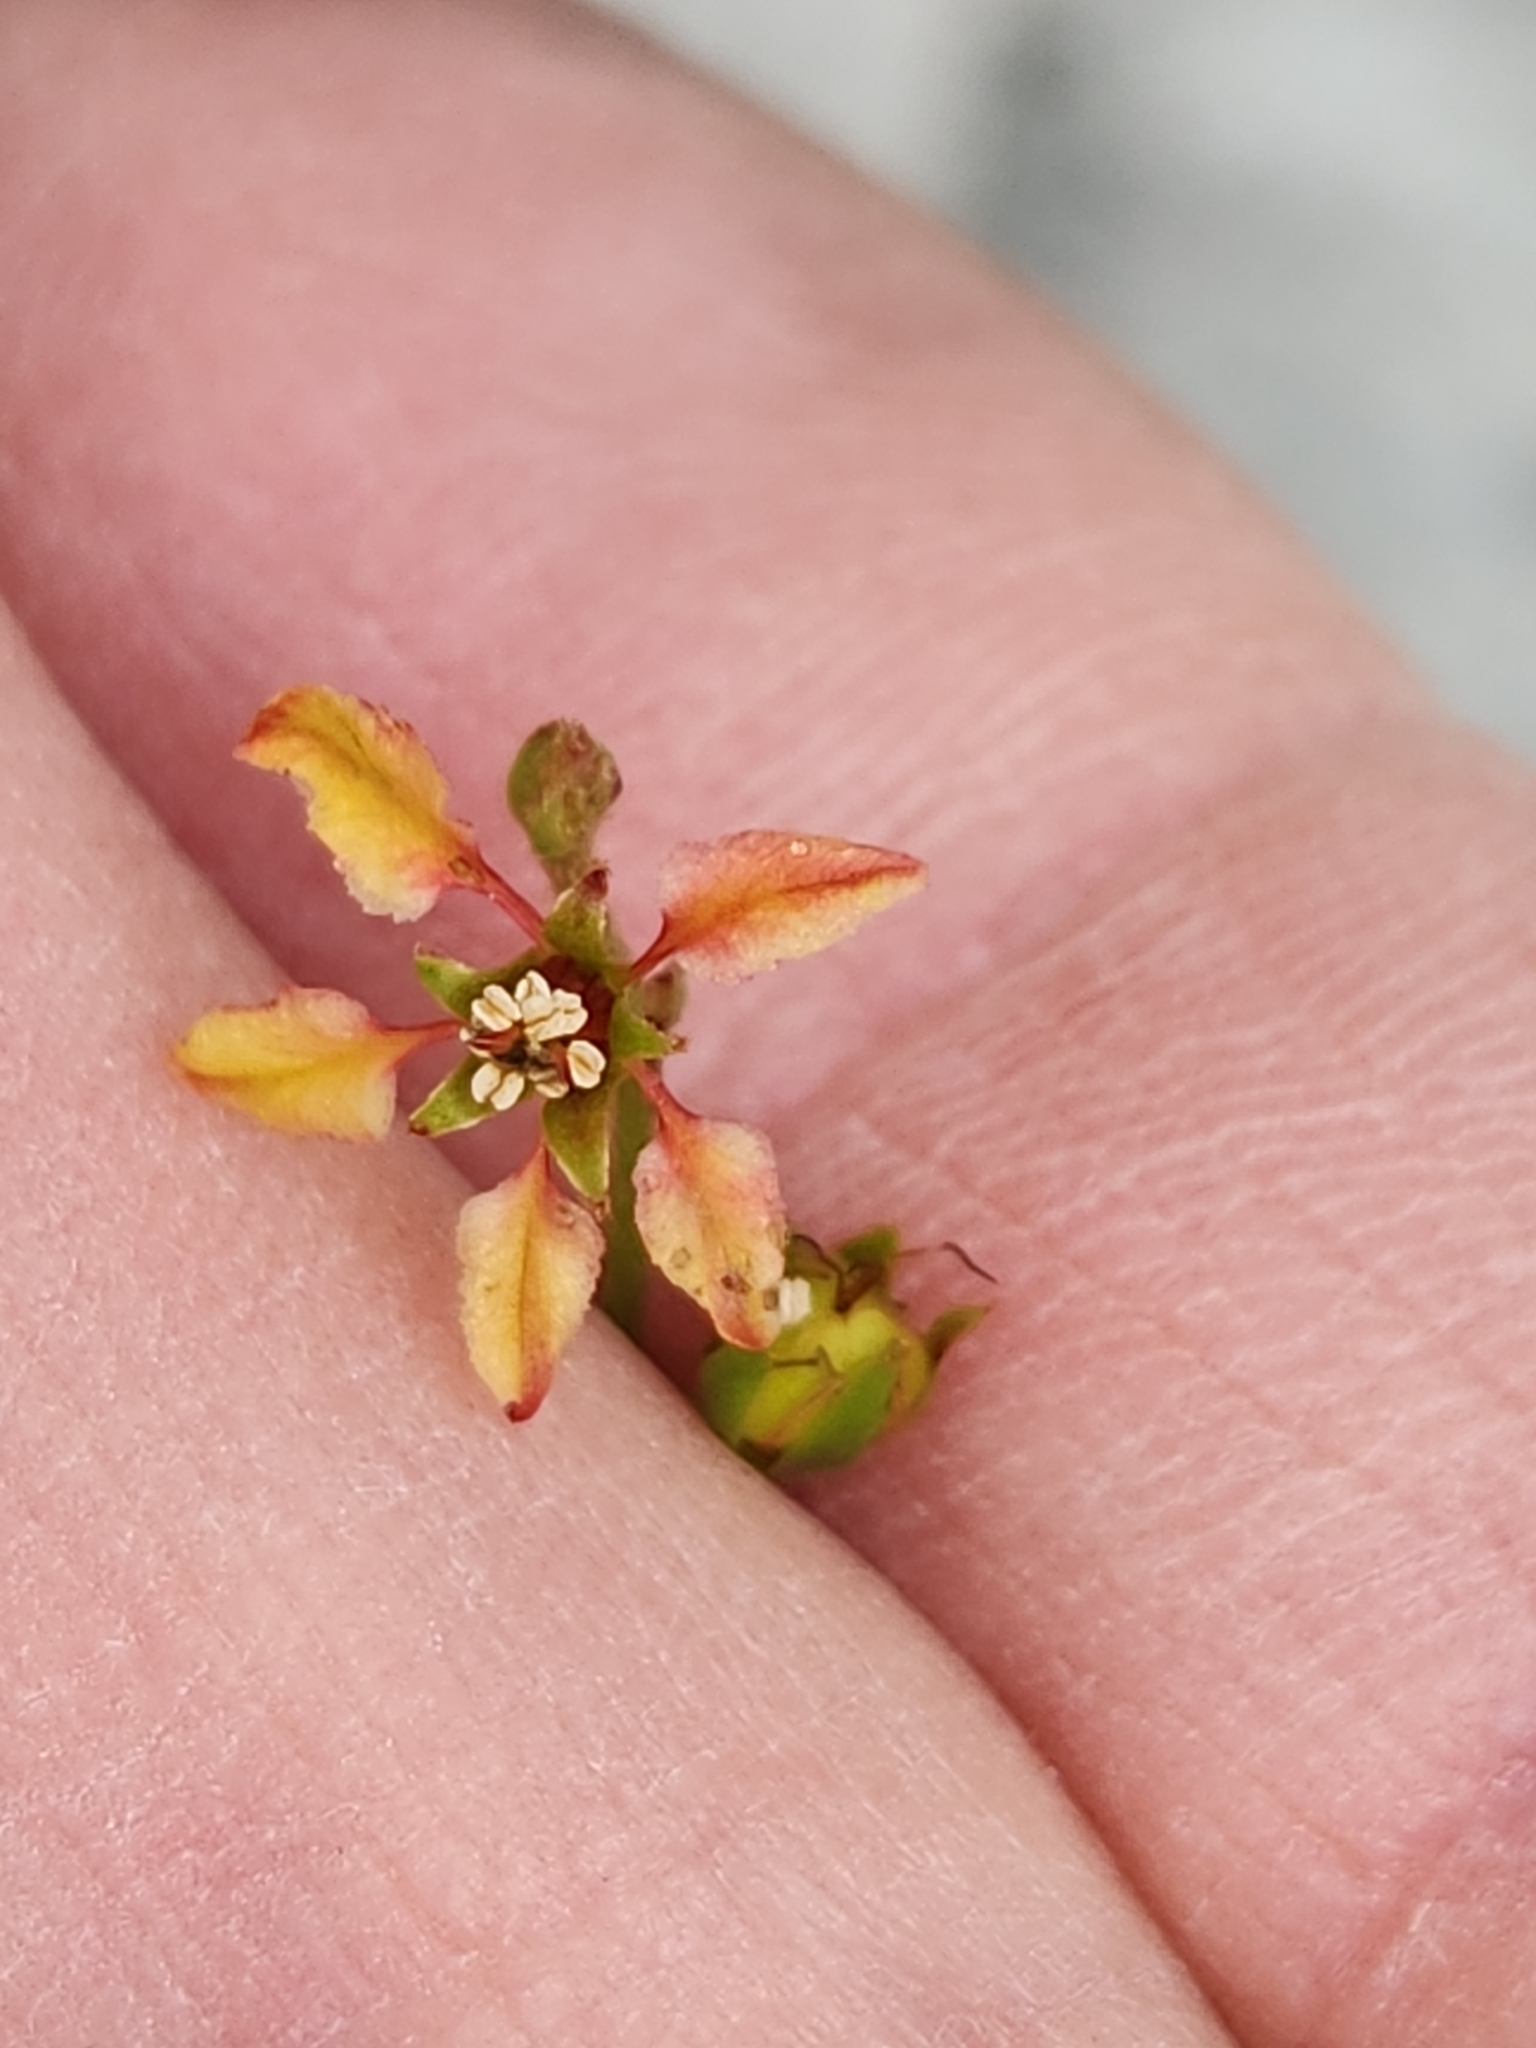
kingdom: Plantae
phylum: Tracheophyta
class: Magnoliopsida
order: Malpighiales
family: Malpighiaceae
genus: Galphimia
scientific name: Galphimia angustifolia
